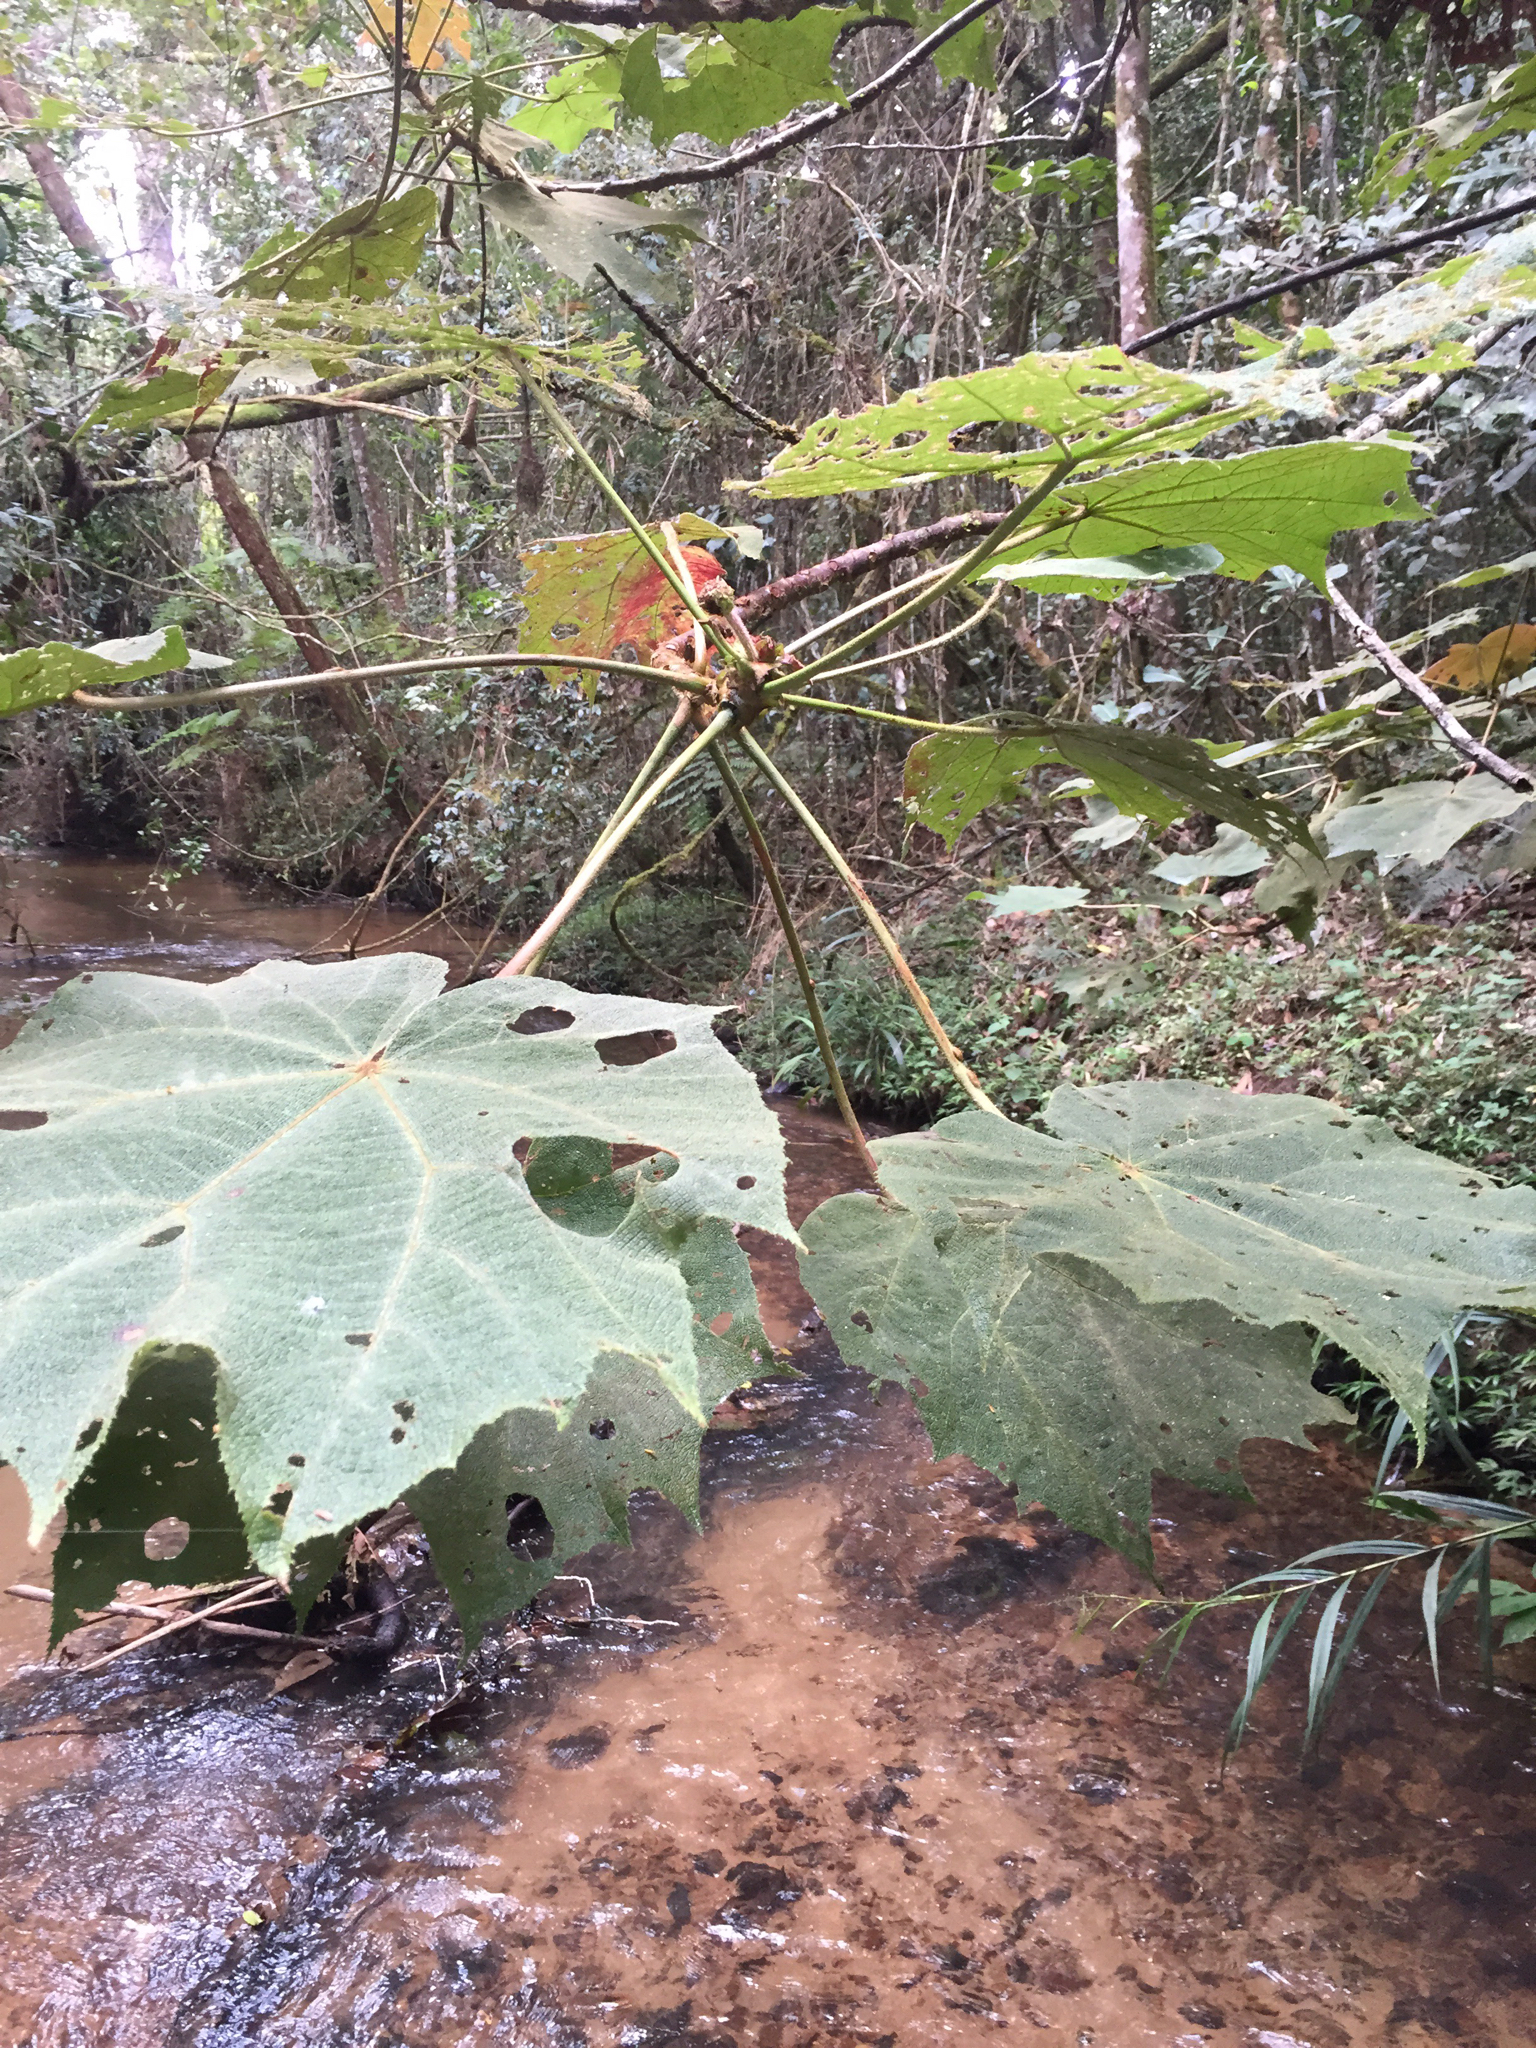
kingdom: Plantae
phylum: Tracheophyta
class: Magnoliopsida
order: Malvales
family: Malvaceae
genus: Dombeya
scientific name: Dombeya biumbellata
